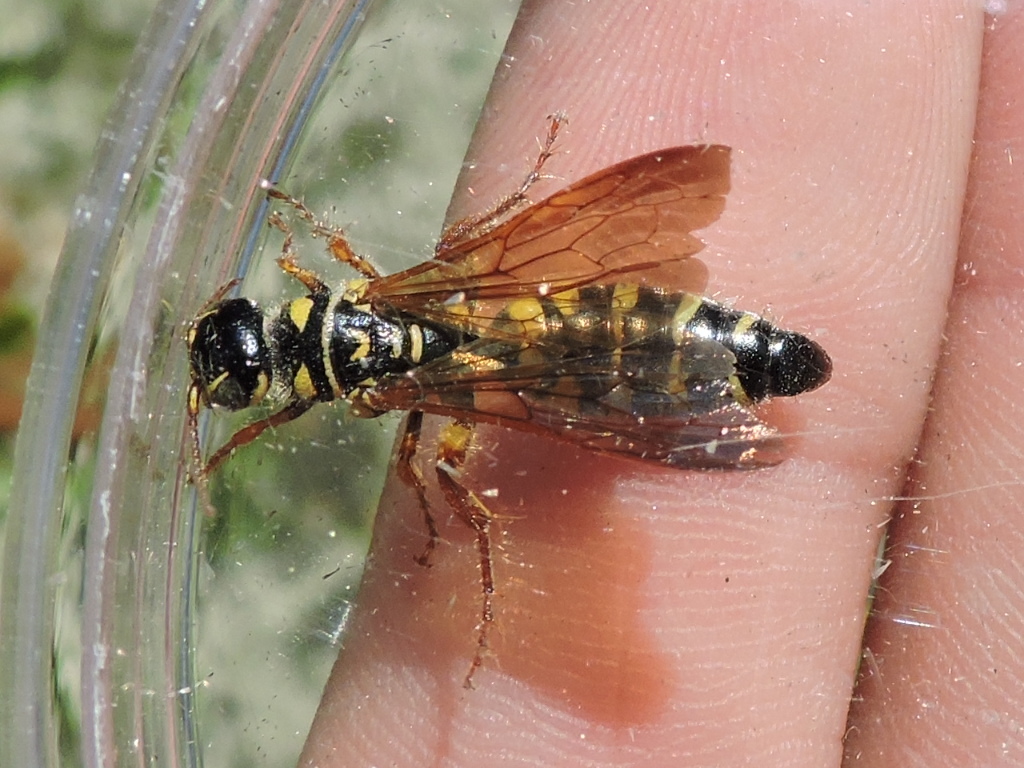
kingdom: Animalia
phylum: Arthropoda
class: Insecta
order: Hymenoptera
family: Tiphiidae
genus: Myzinum
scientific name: Myzinum quinquecinctum
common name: Five-banded thynnid wasp
